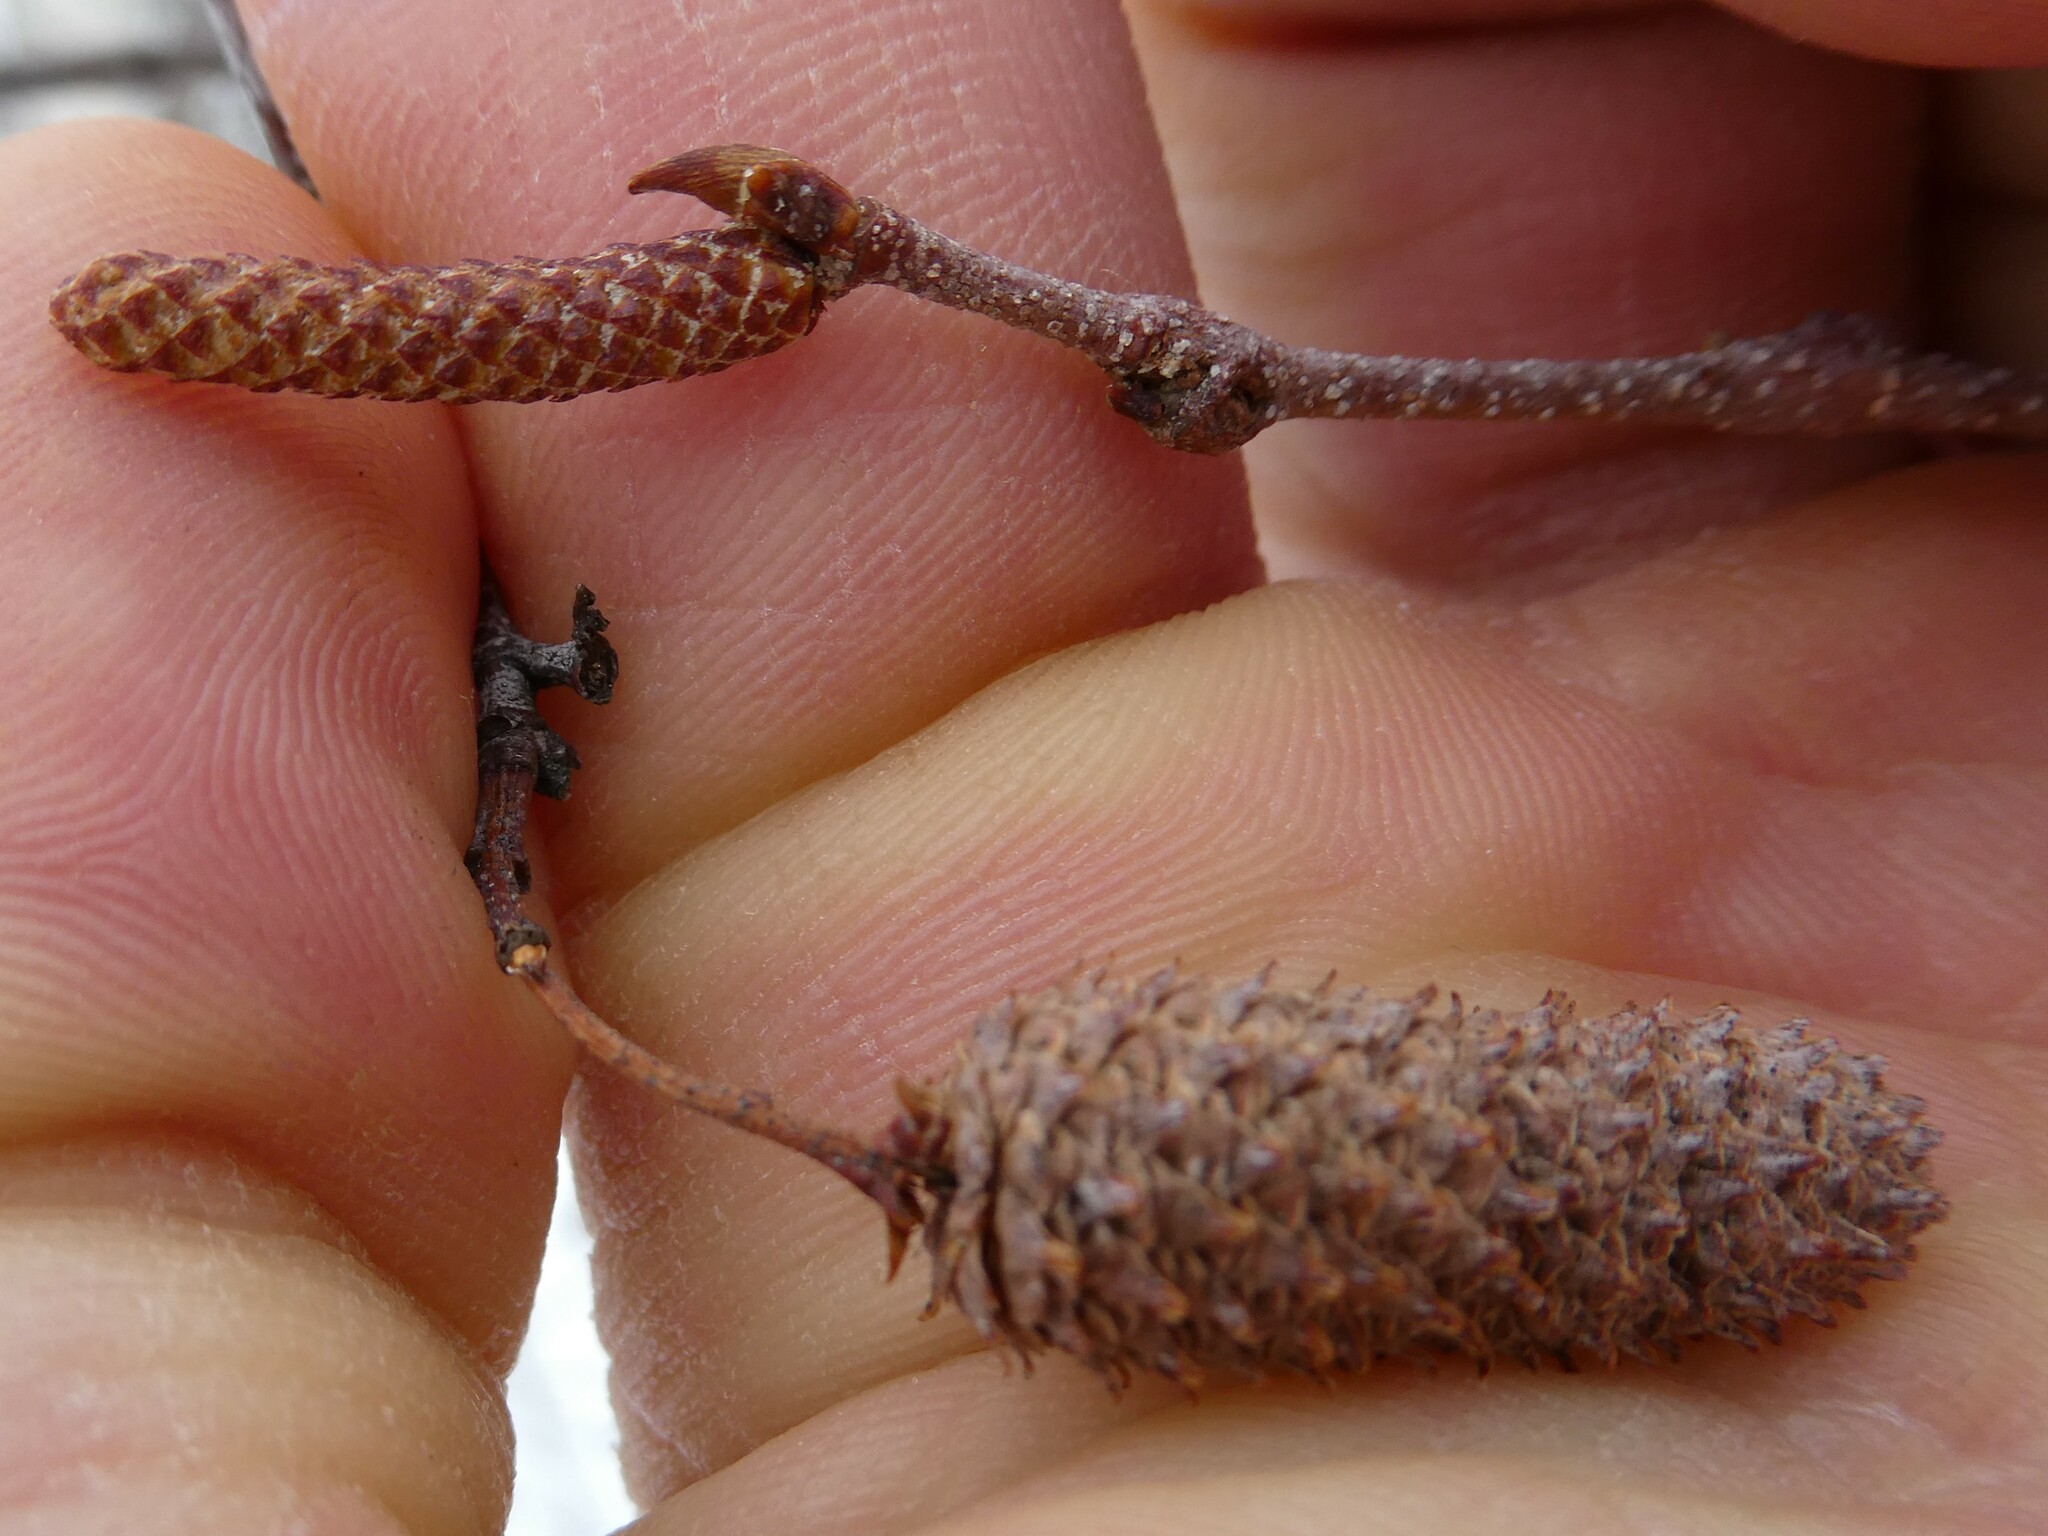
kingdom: Plantae
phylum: Tracheophyta
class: Magnoliopsida
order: Fagales
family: Betulaceae
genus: Betula
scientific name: Betula populifolia
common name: Fire birch
